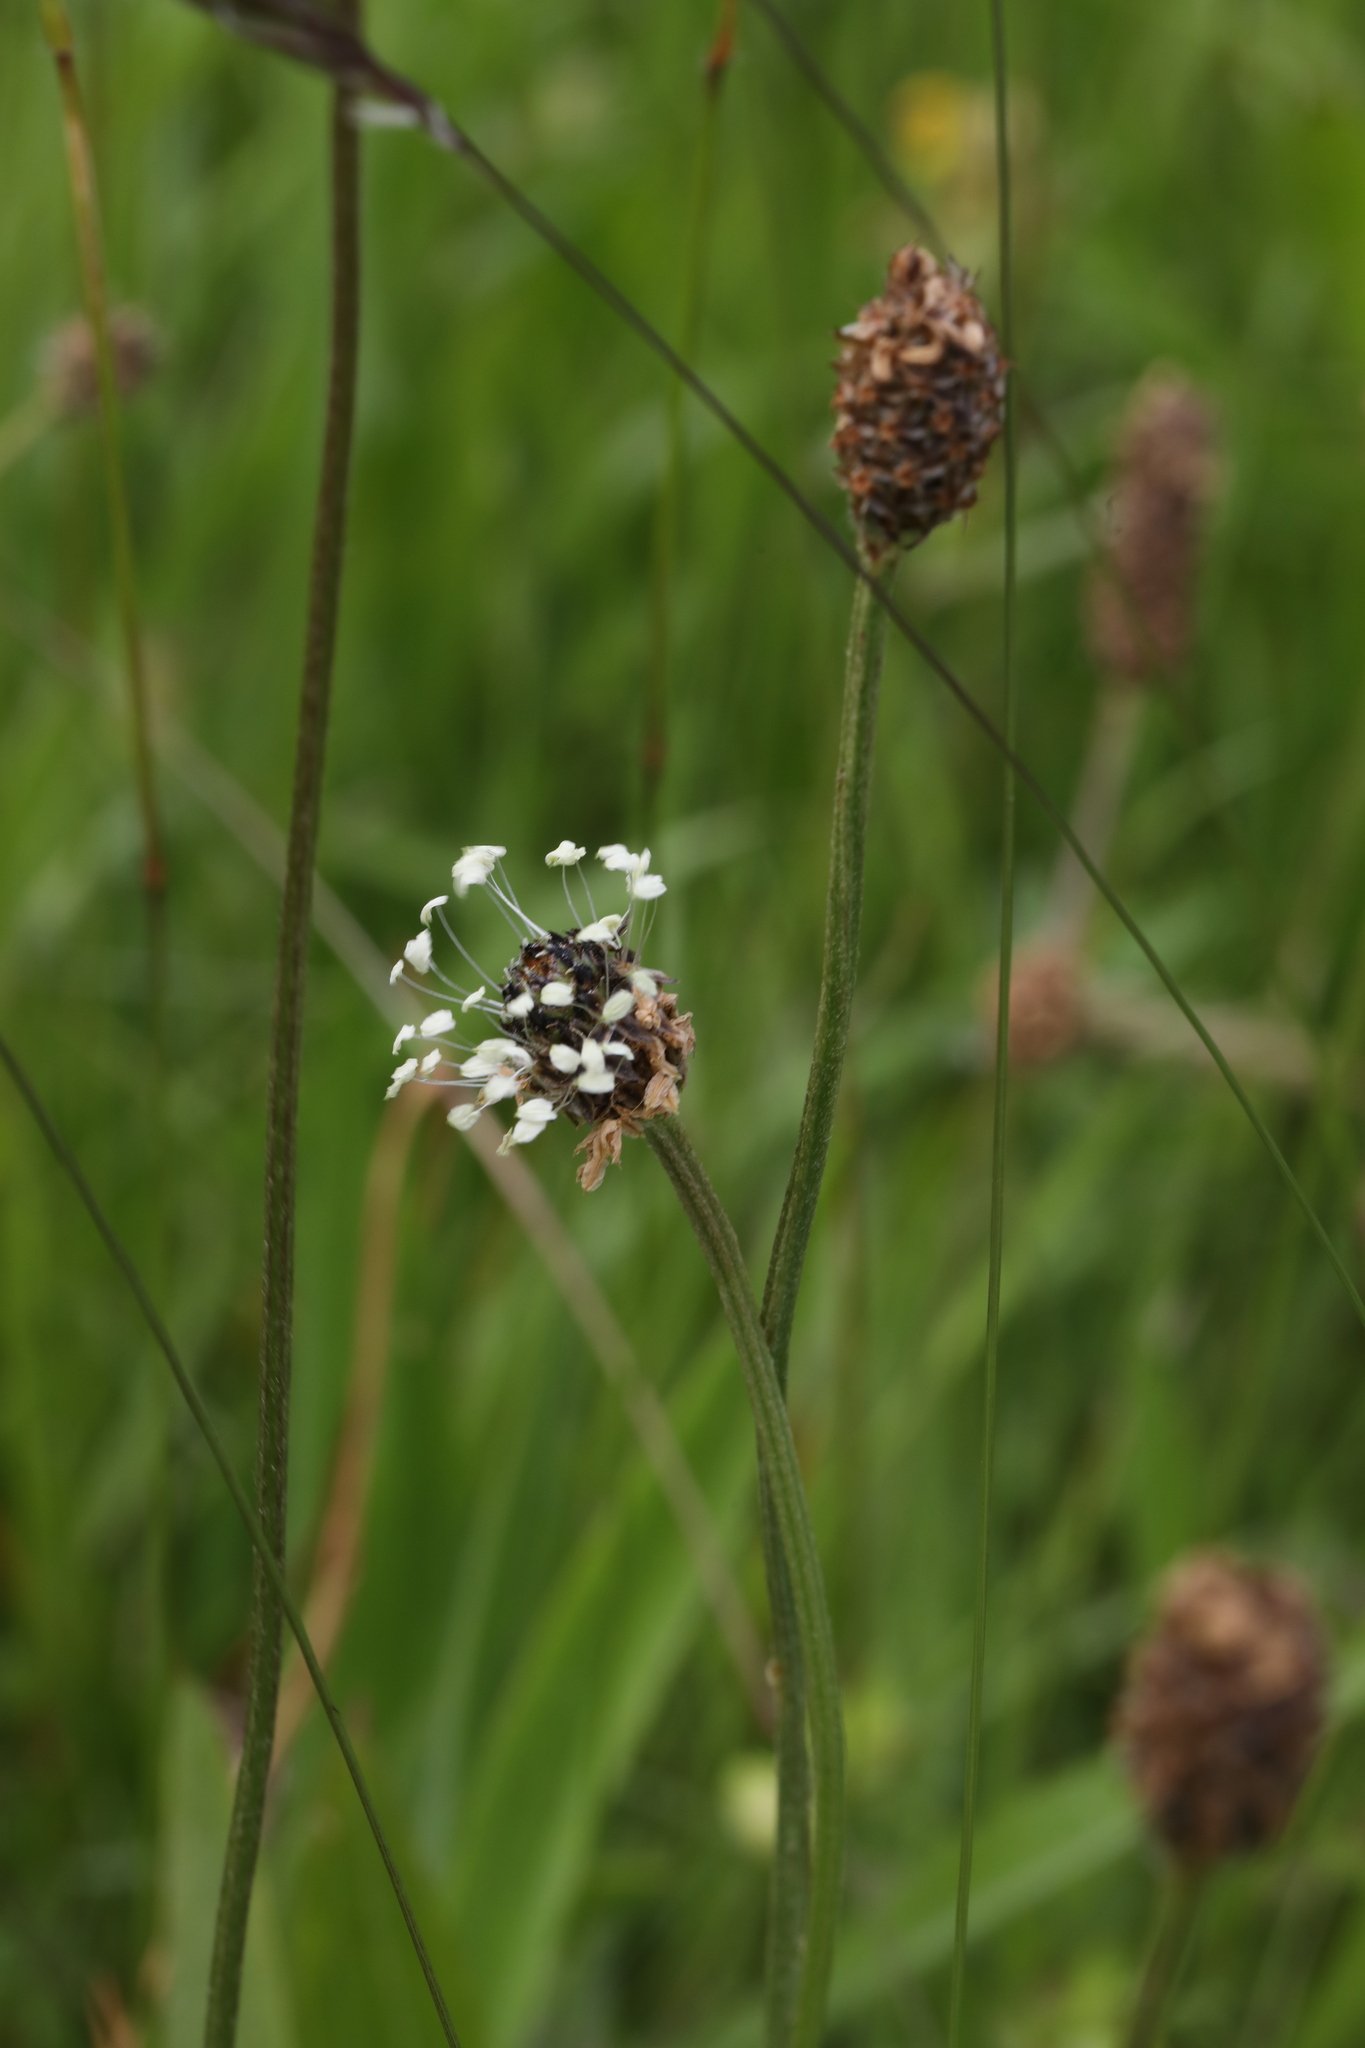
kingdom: Plantae
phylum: Tracheophyta
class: Magnoliopsida
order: Lamiales
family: Plantaginaceae
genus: Plantago
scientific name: Plantago lanceolata
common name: Ribwort plantain
